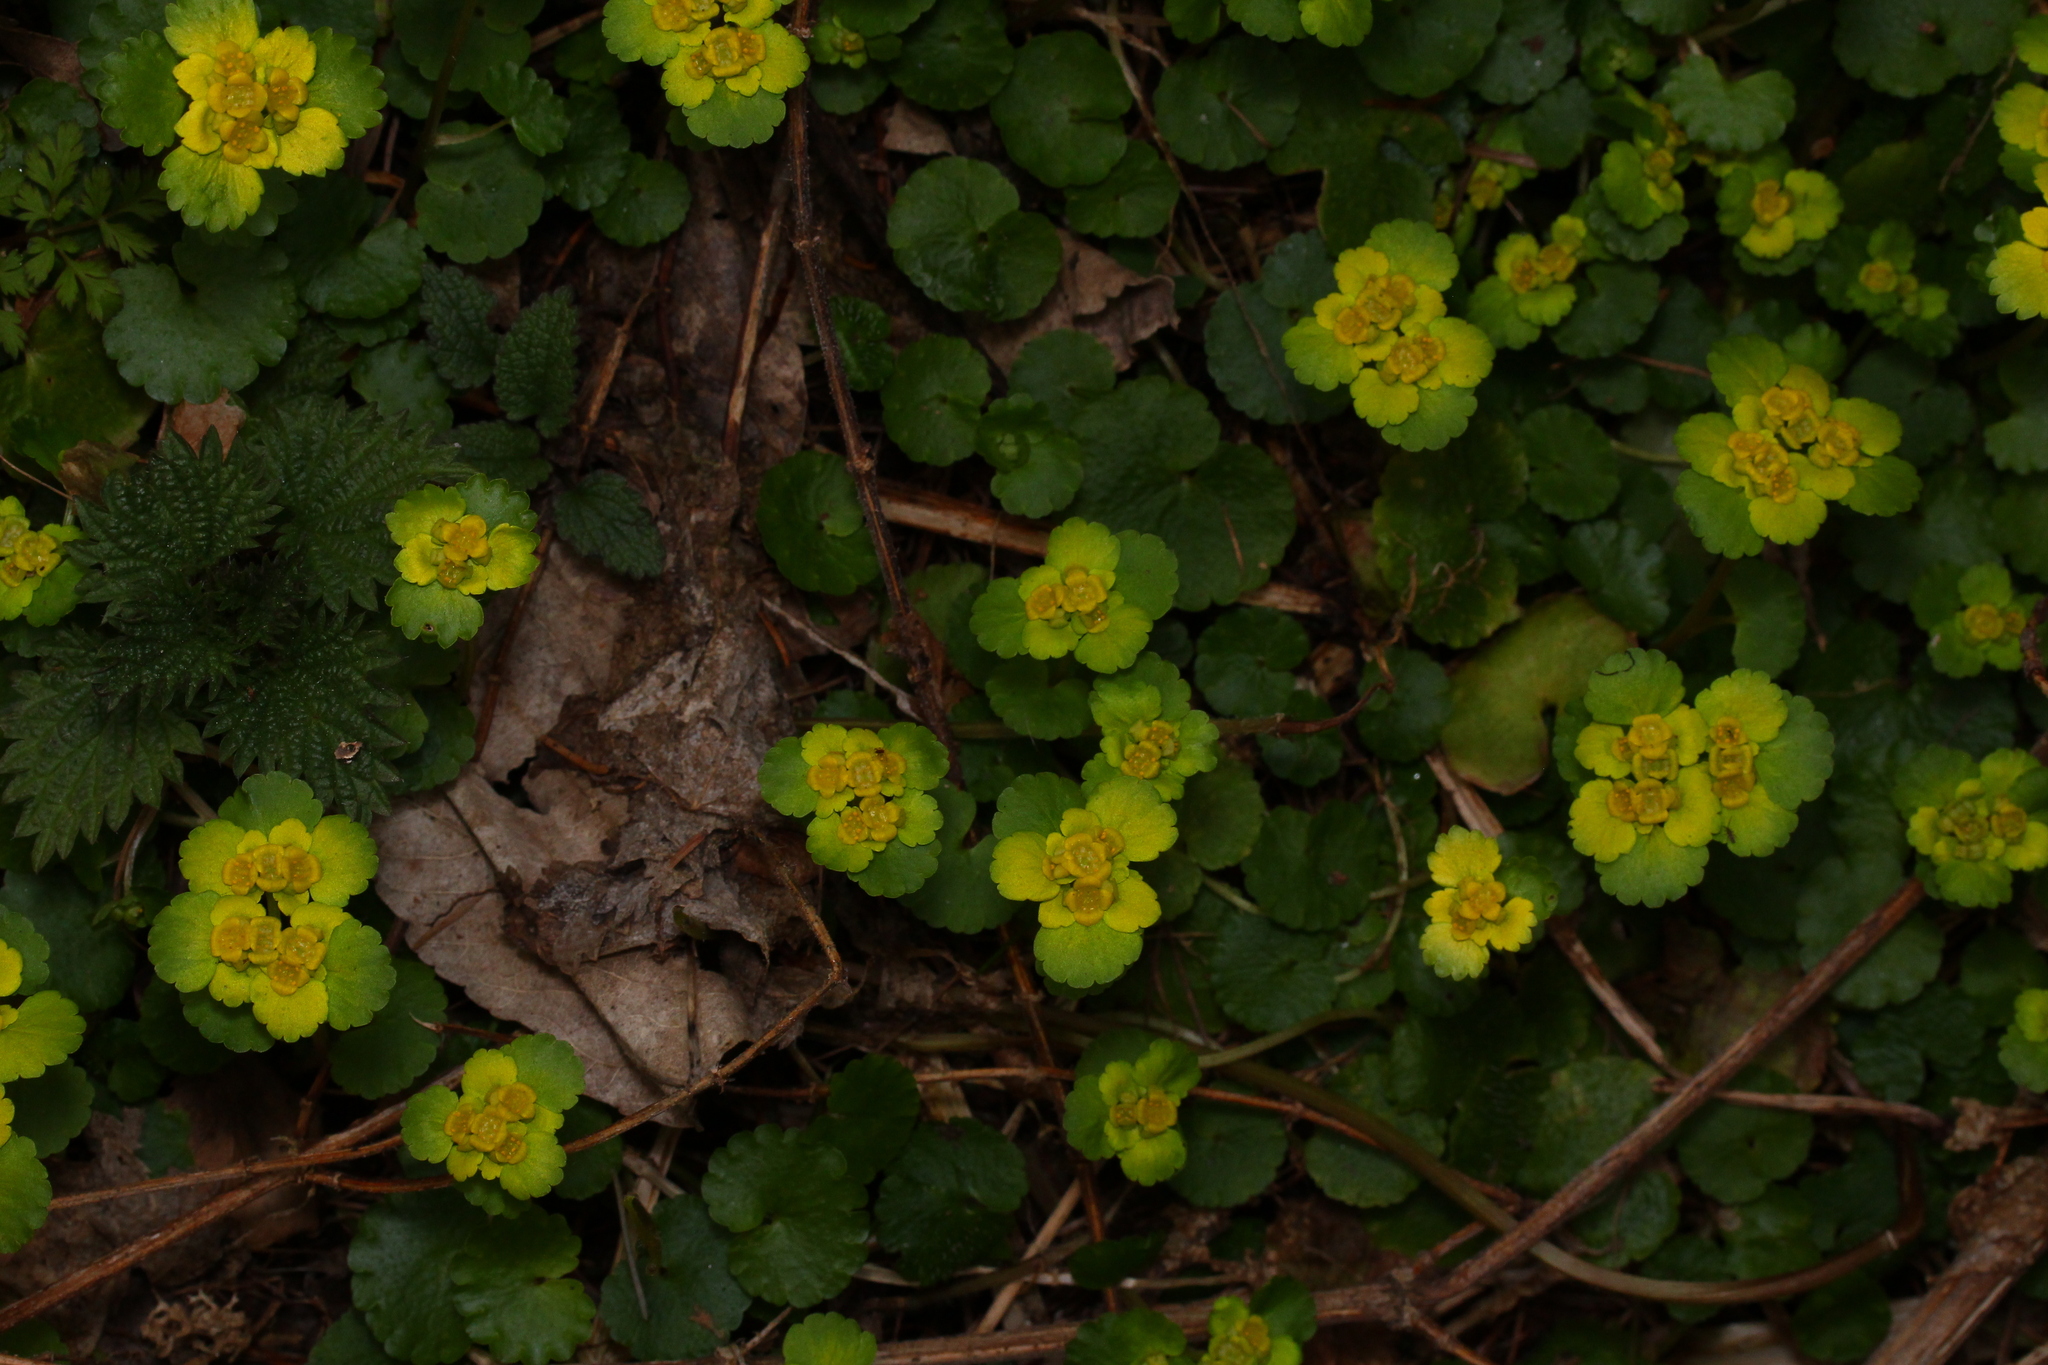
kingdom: Plantae
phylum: Tracheophyta
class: Magnoliopsida
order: Saxifragales
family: Saxifragaceae
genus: Chrysosplenium
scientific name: Chrysosplenium alternifolium
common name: Alternate-leaved golden-saxifrage
